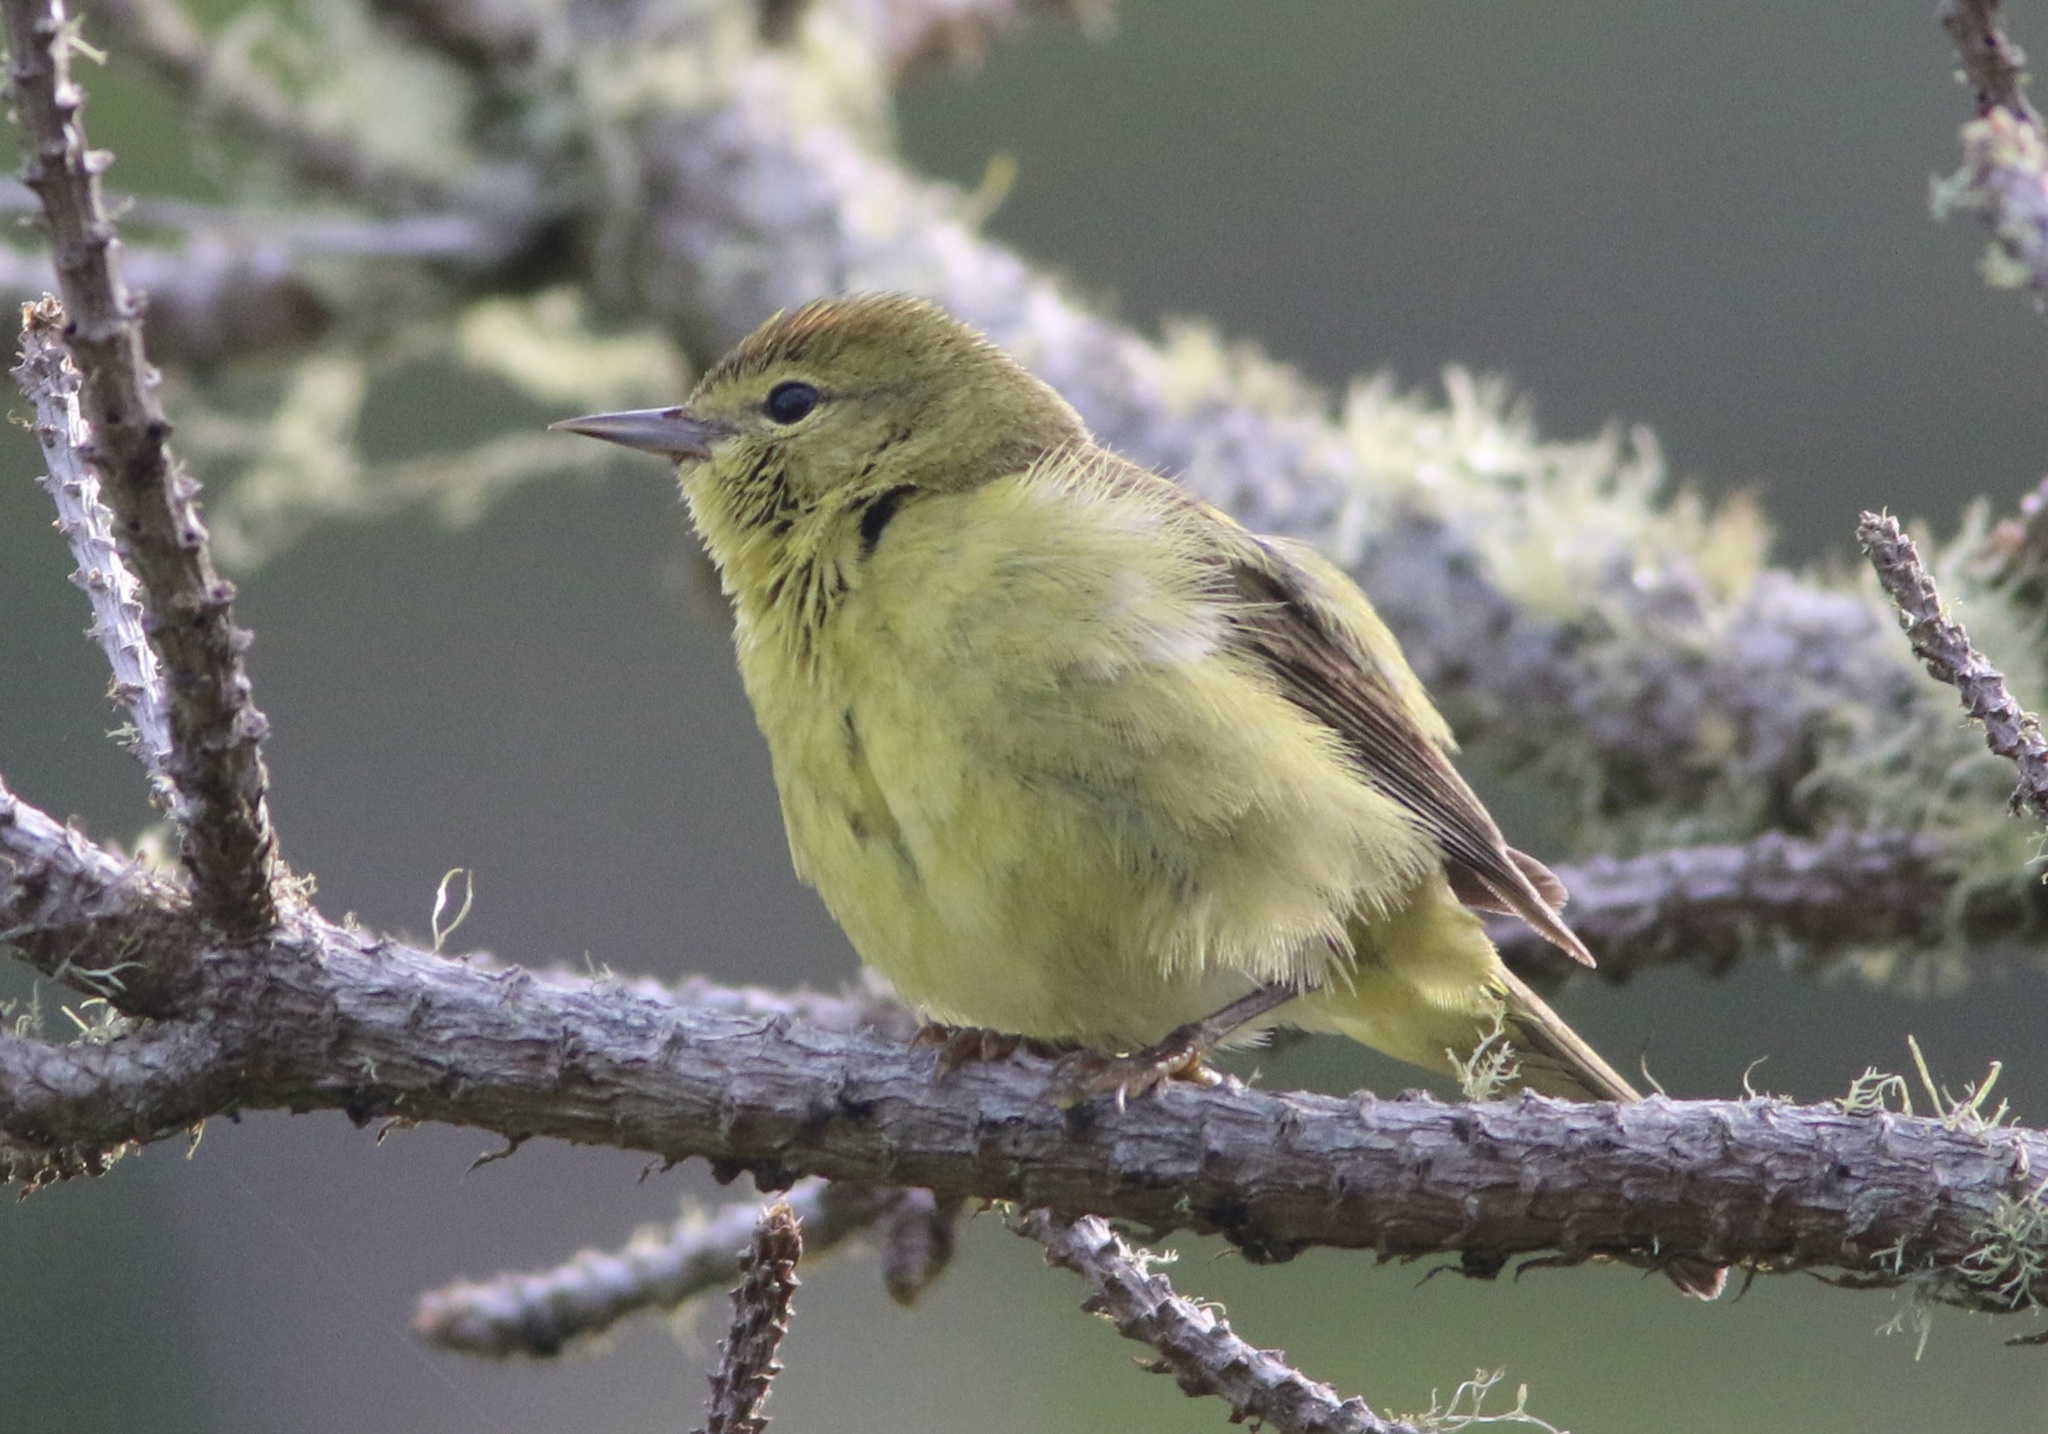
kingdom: Animalia
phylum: Chordata
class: Aves
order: Passeriformes
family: Parulidae
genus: Leiothlypis
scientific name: Leiothlypis celata
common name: Orange-crowned warbler
